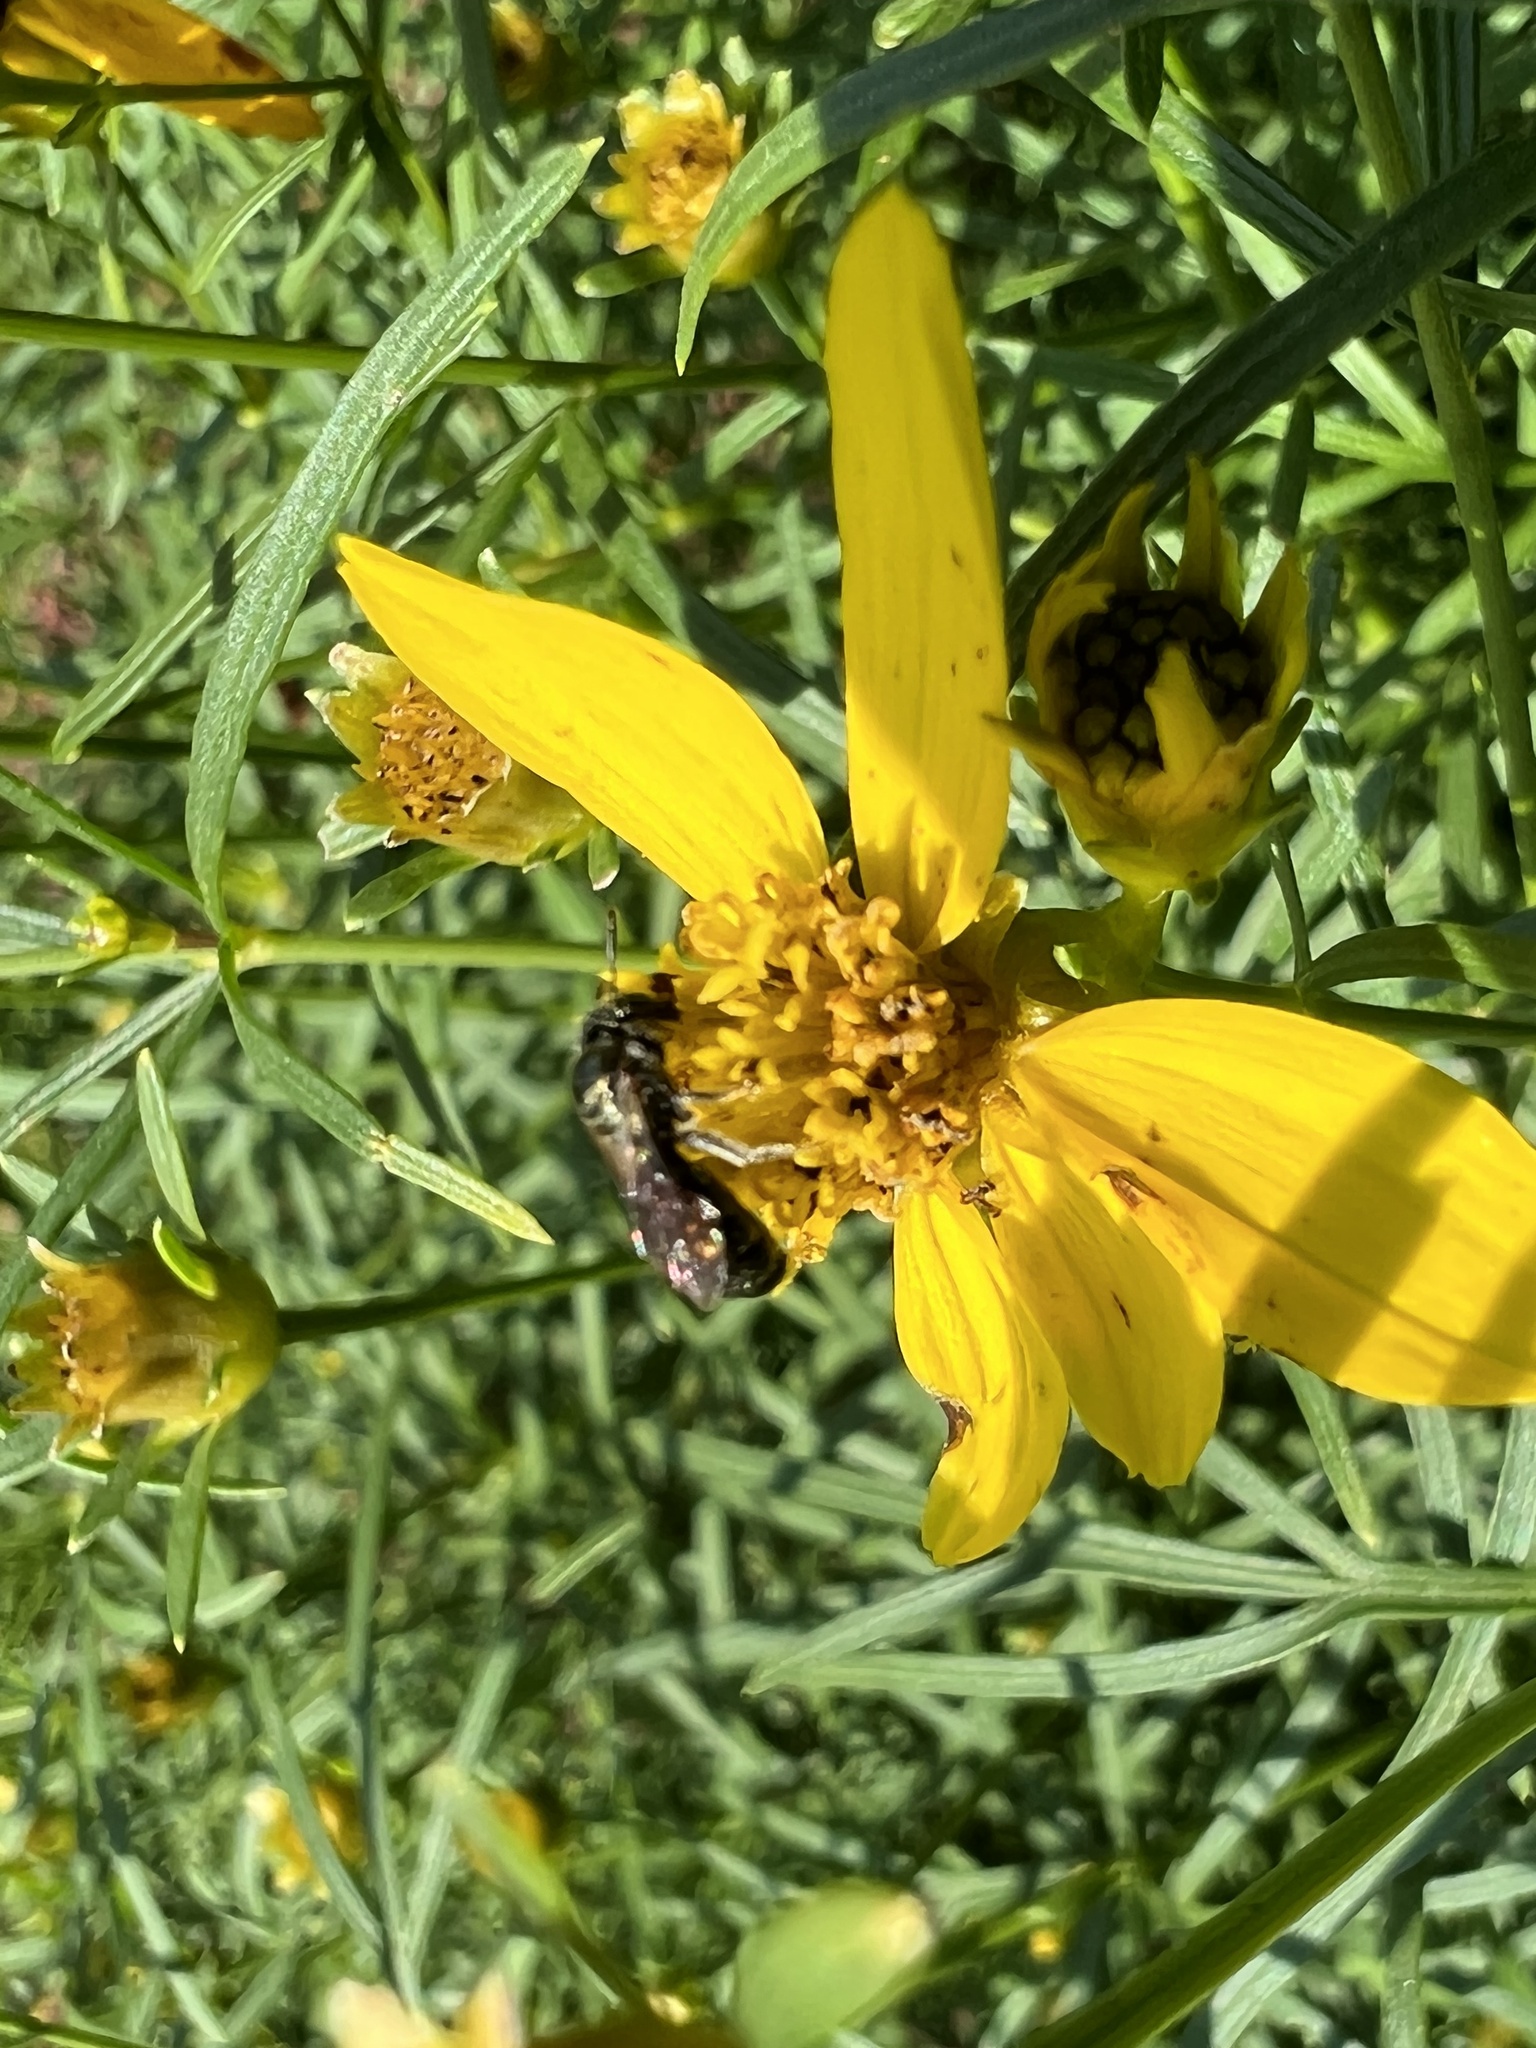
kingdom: Plantae
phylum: Tracheophyta
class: Magnoliopsida
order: Asterales
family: Asteraceae
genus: Coreopsis
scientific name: Coreopsis verticillata
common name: Whorled tickseed
